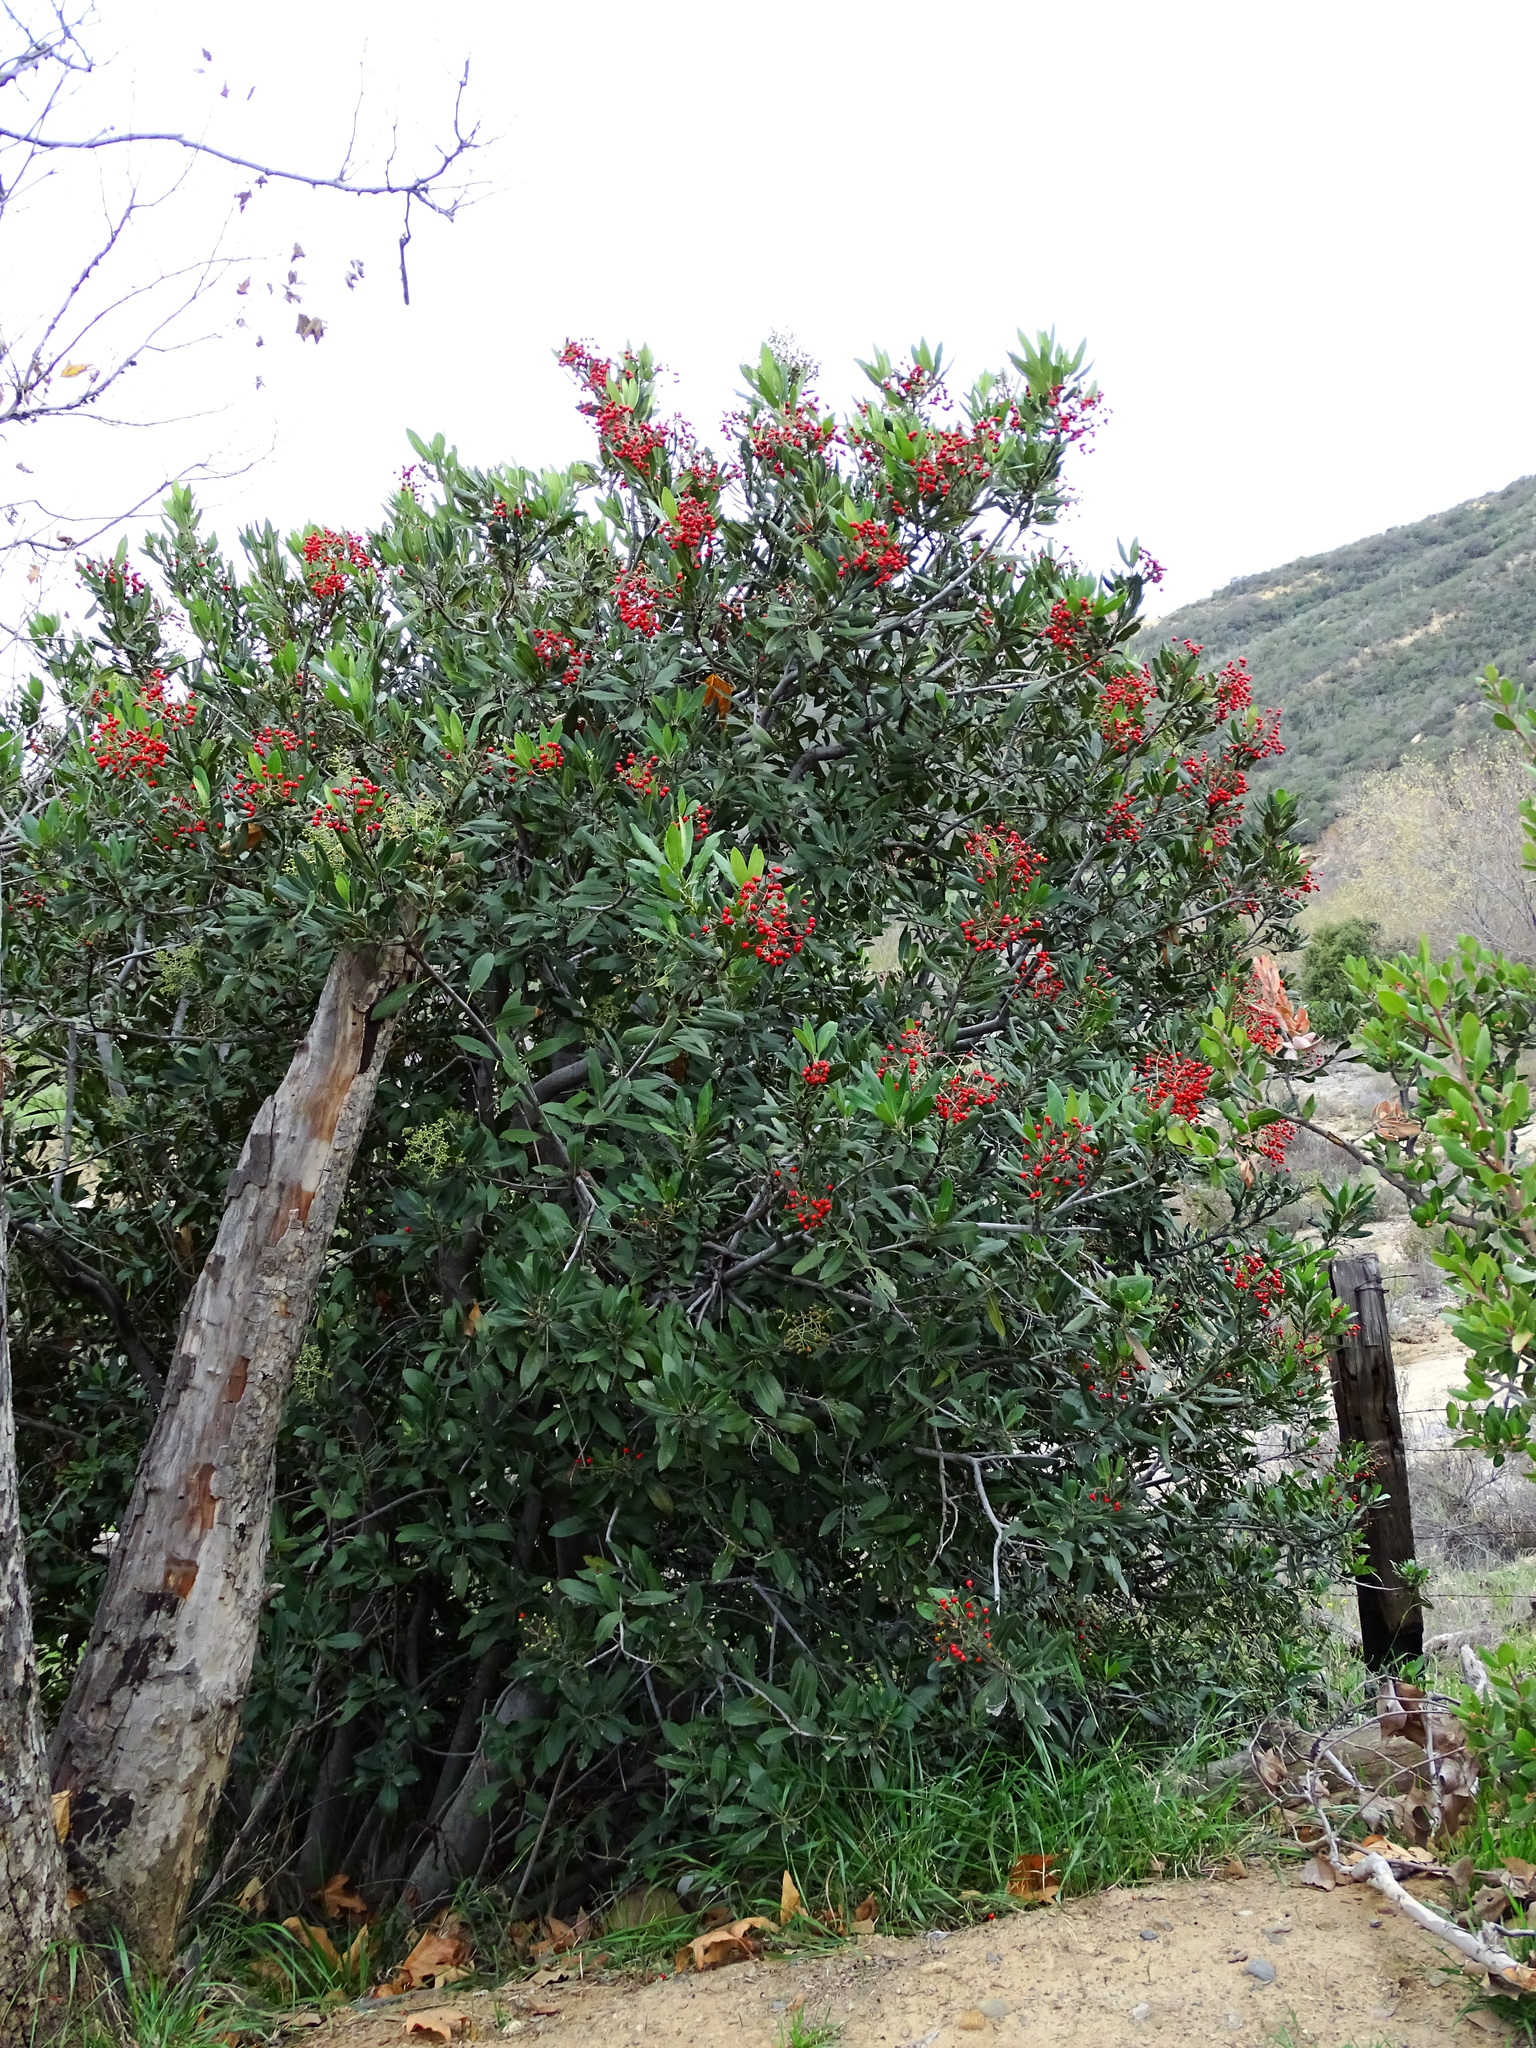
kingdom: Plantae
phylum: Tracheophyta
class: Magnoliopsida
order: Rosales
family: Rosaceae
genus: Heteromeles
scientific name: Heteromeles arbutifolia
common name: California-holly
